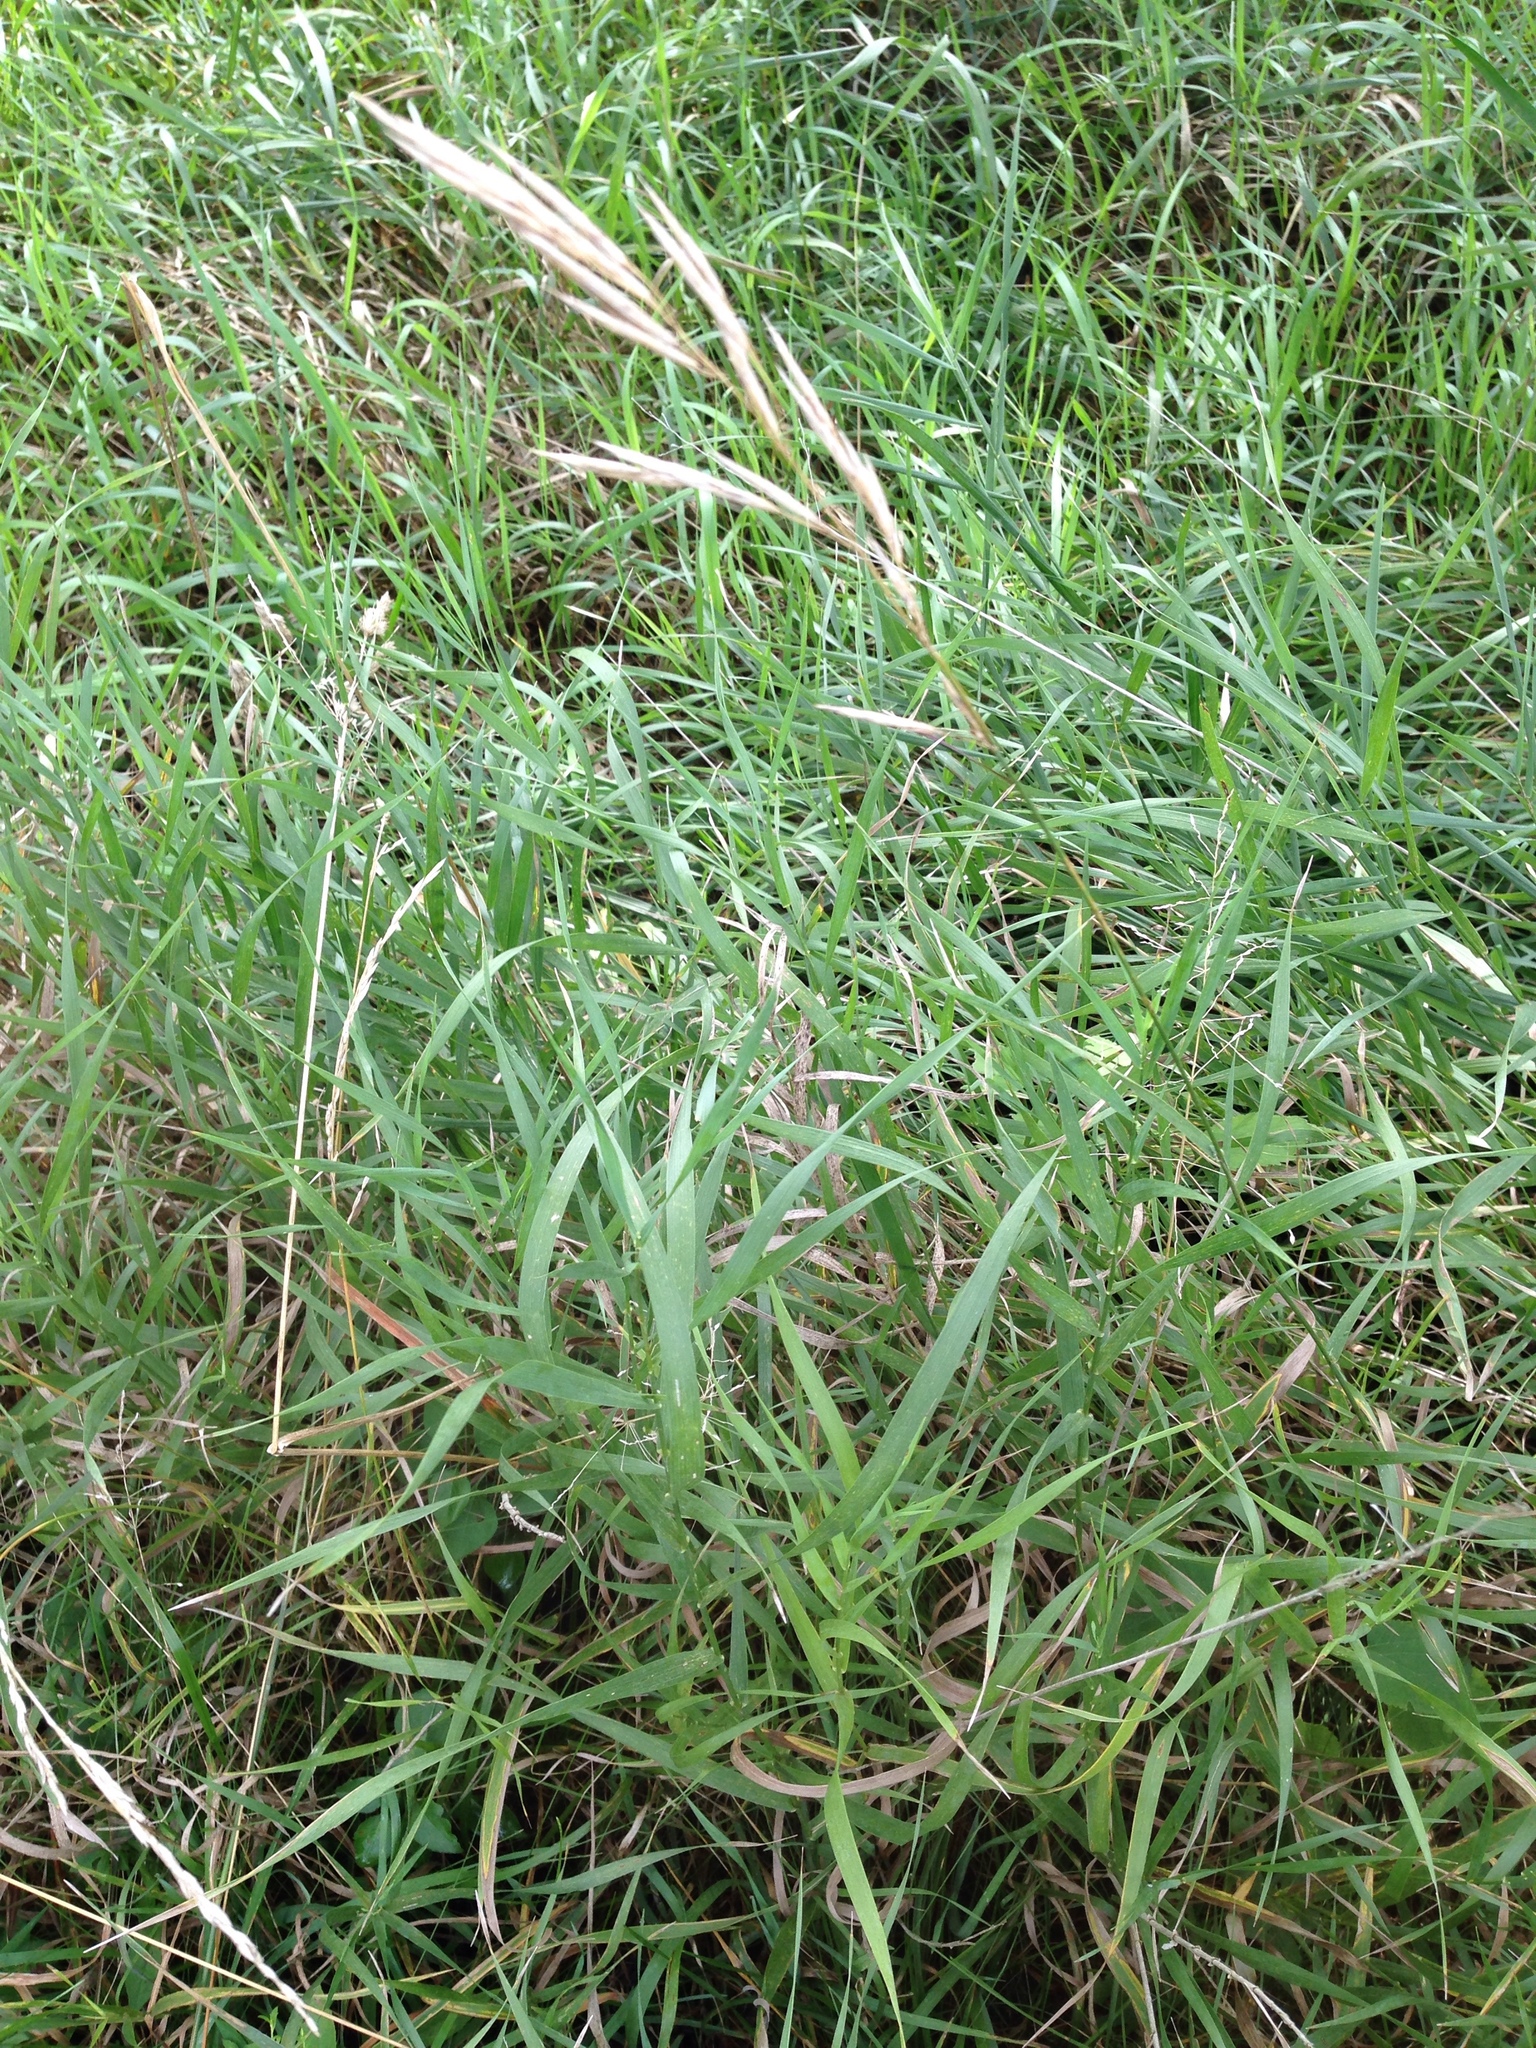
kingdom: Plantae
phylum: Tracheophyta
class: Liliopsida
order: Poales
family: Poaceae
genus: Bromus
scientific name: Bromus inermis
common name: Smooth brome
